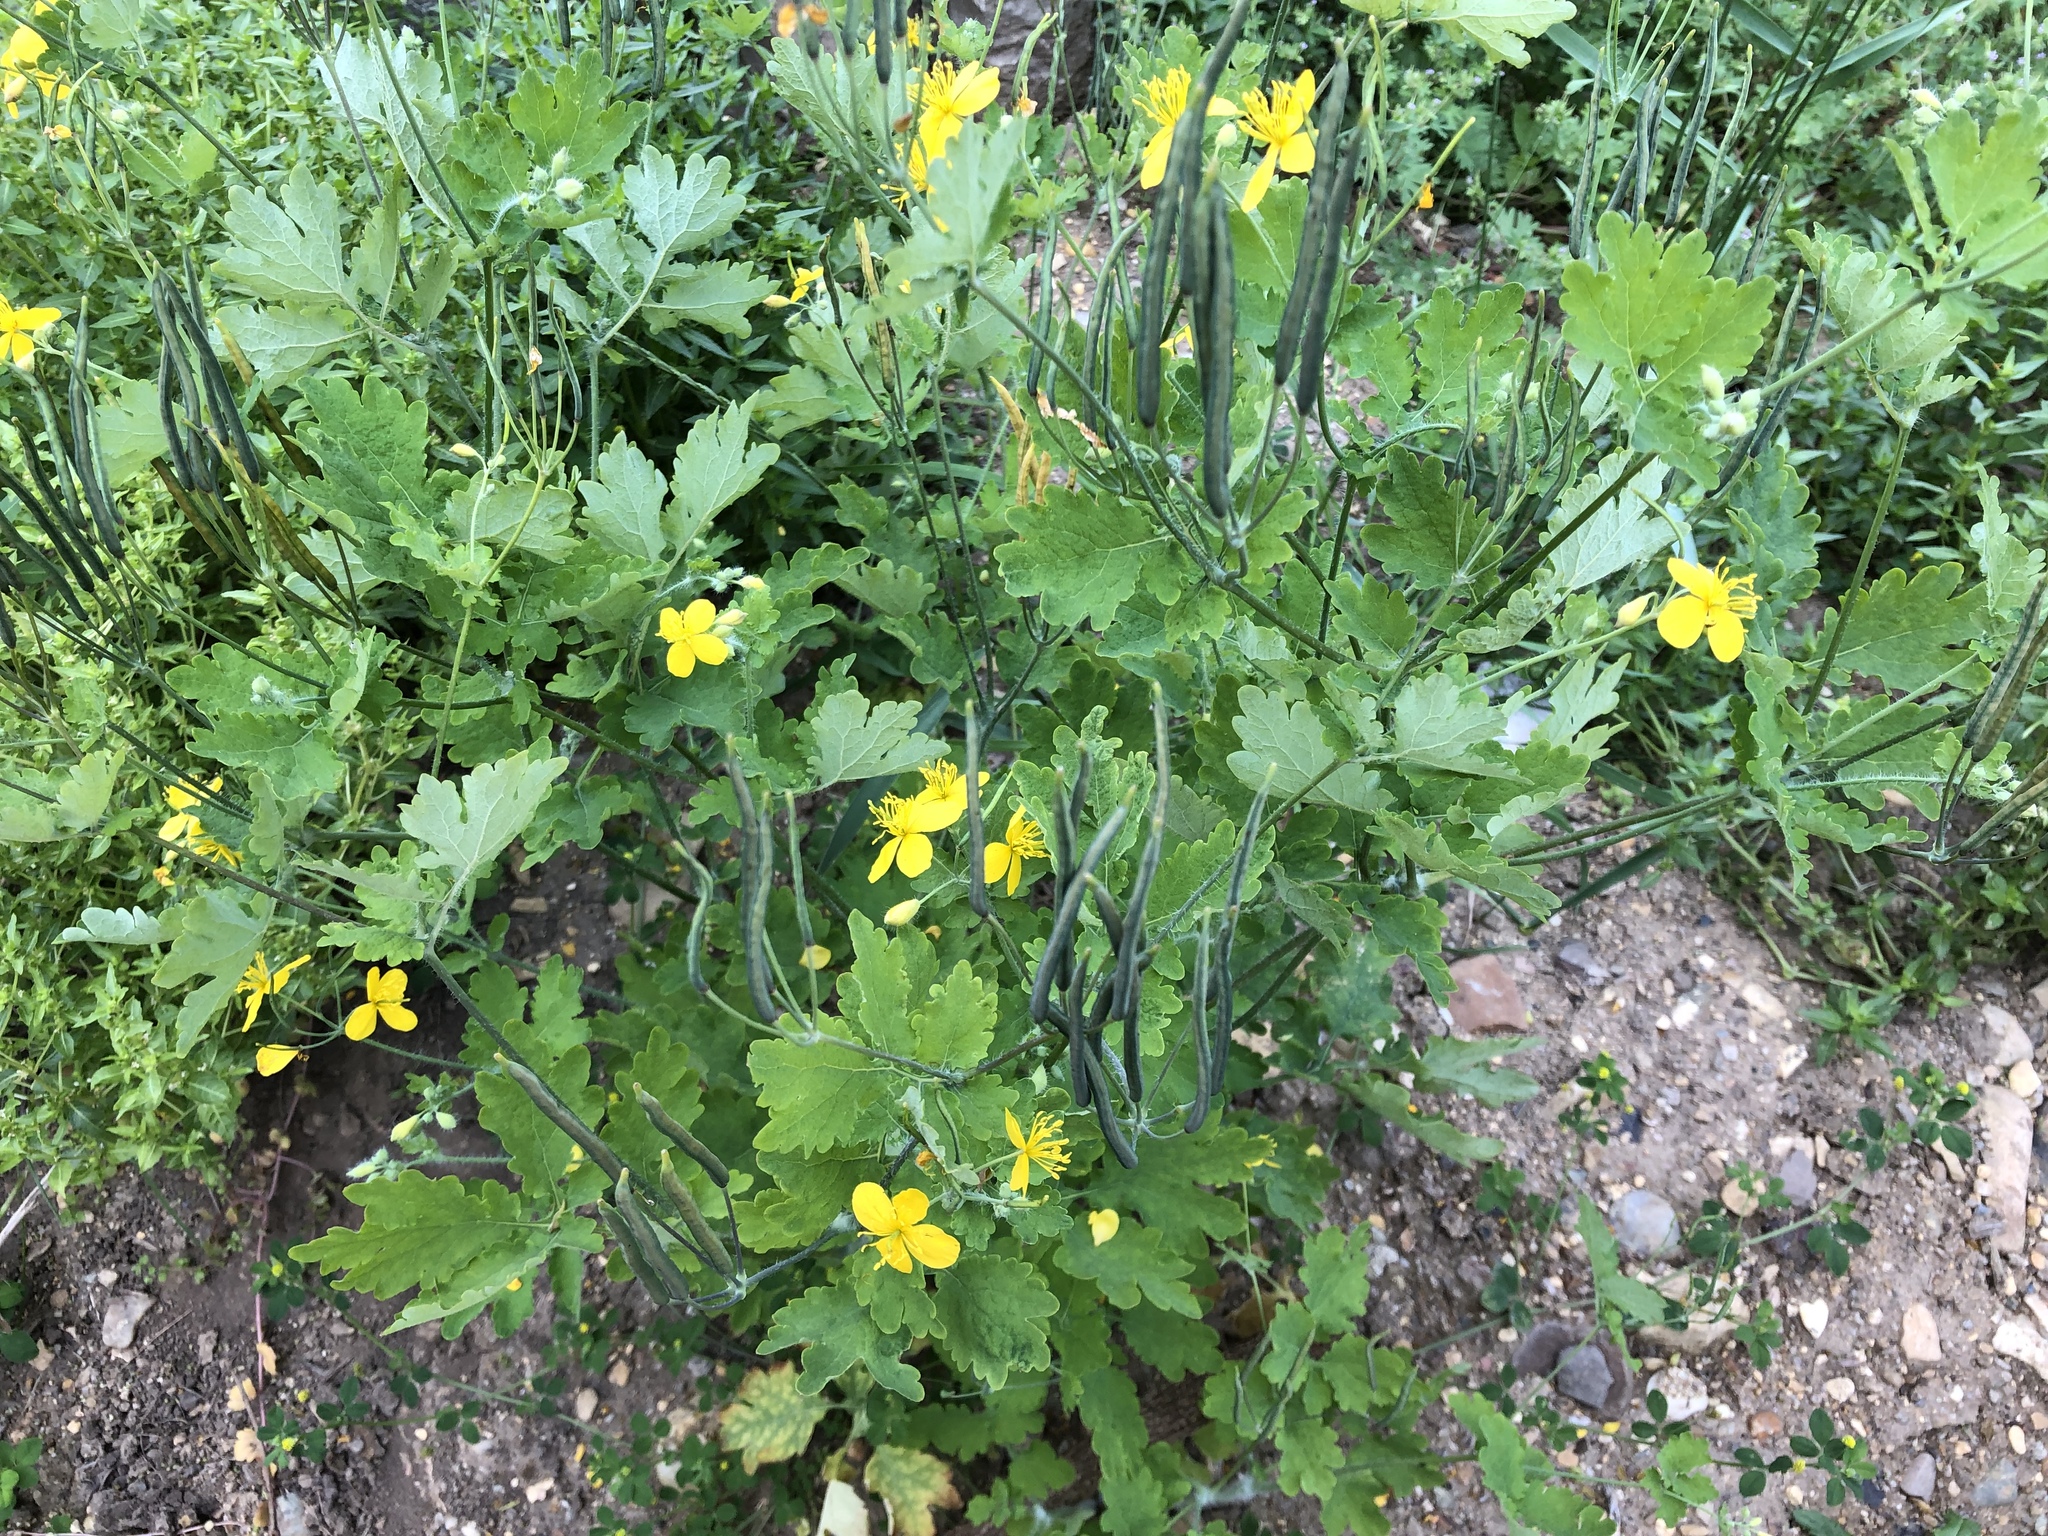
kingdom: Plantae
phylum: Tracheophyta
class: Magnoliopsida
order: Ranunculales
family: Papaveraceae
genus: Chelidonium
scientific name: Chelidonium majus
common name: Greater celandine
